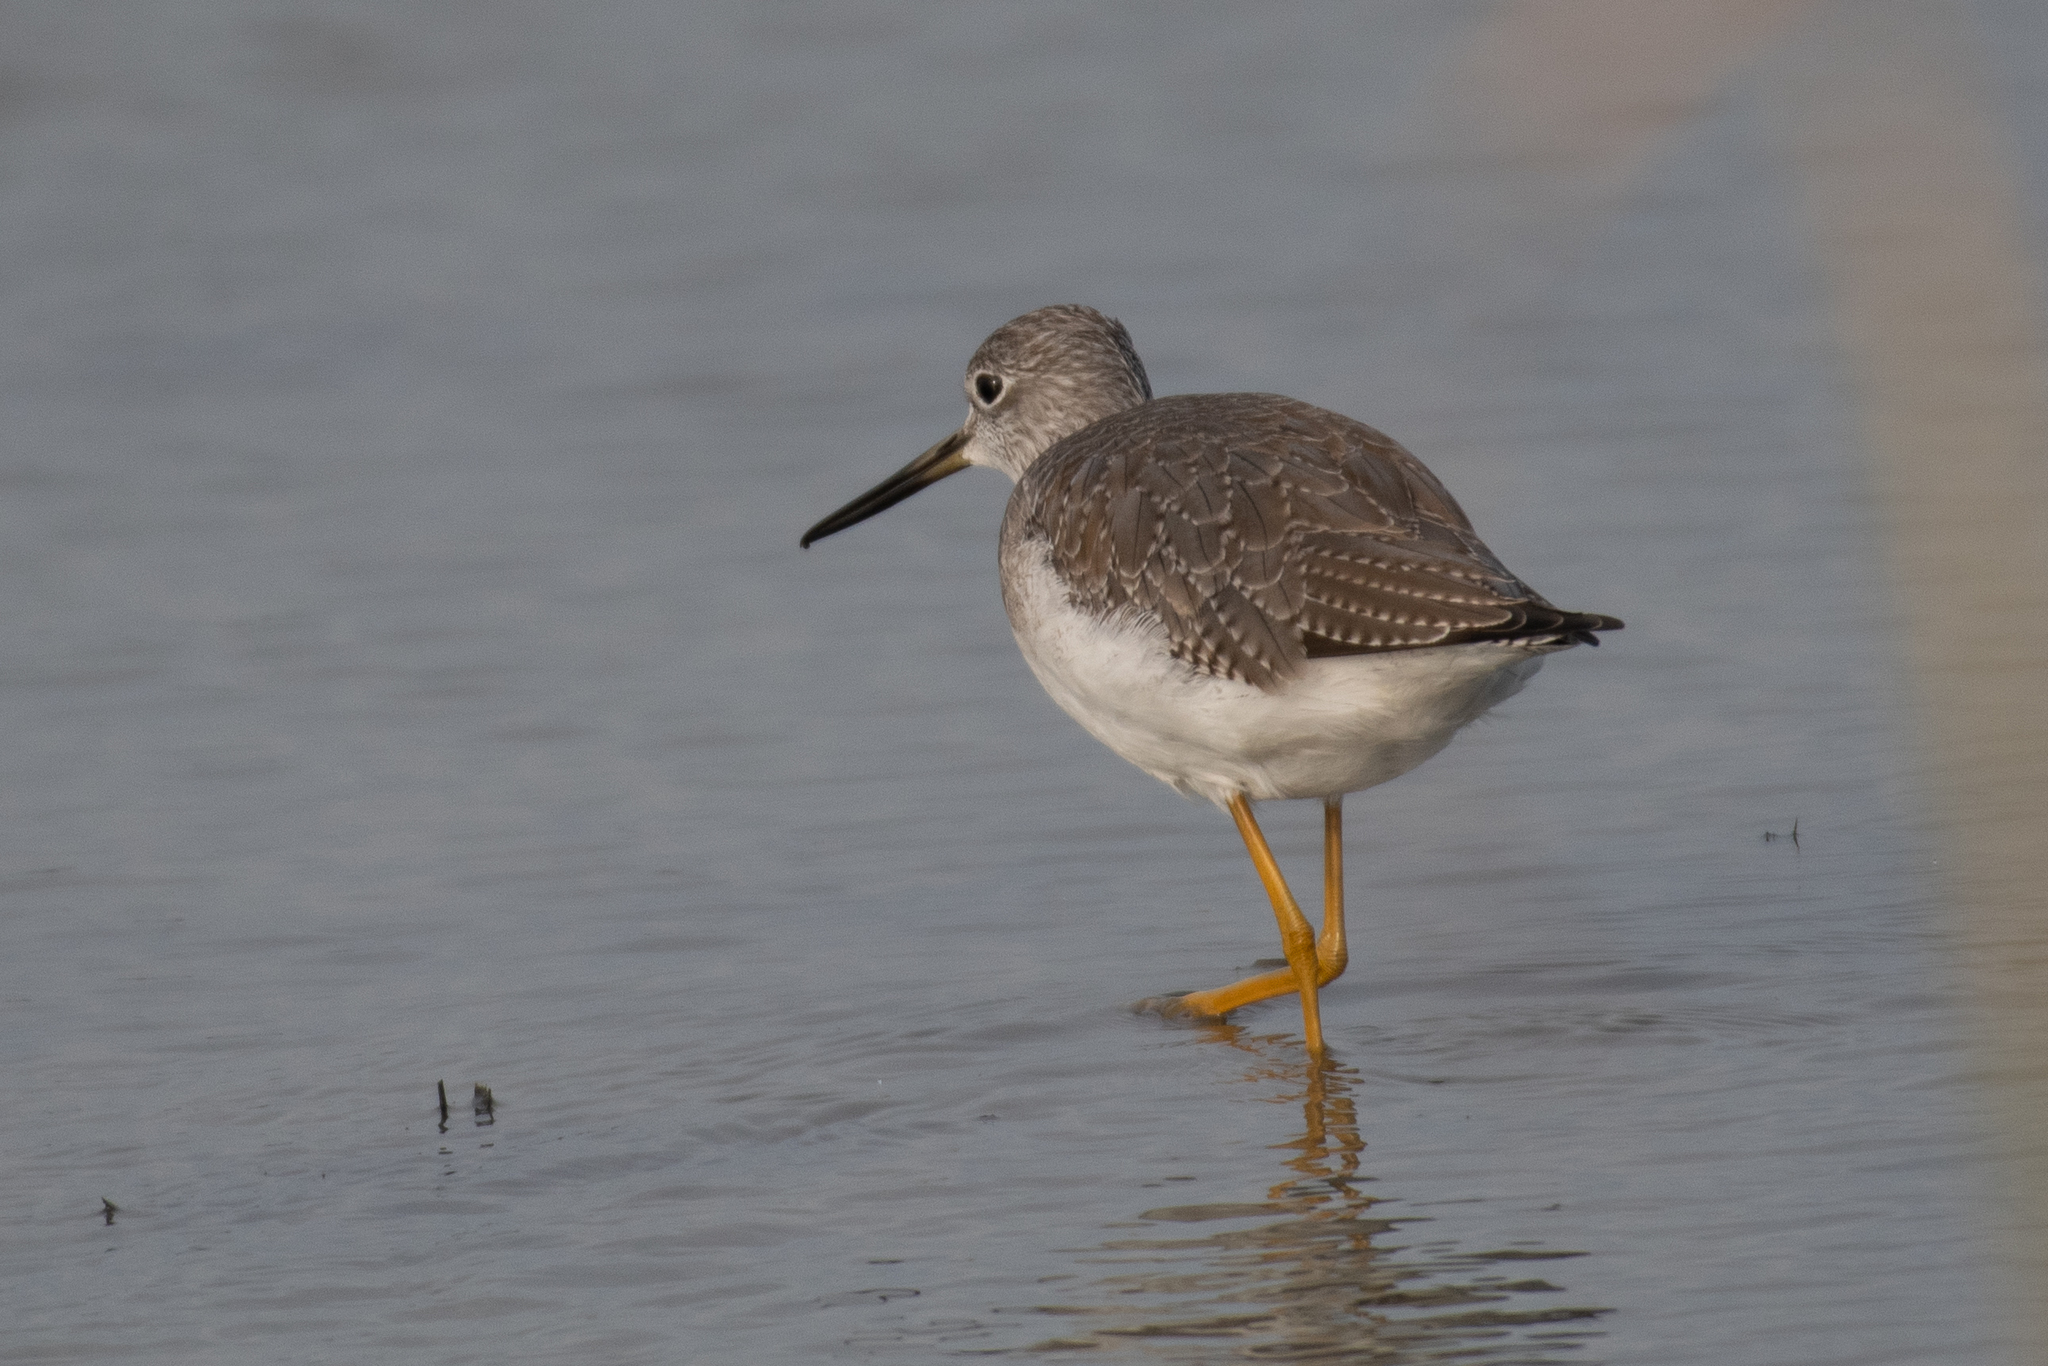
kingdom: Animalia
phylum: Chordata
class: Aves
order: Charadriiformes
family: Scolopacidae
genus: Tringa
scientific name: Tringa melanoleuca
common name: Greater yellowlegs
